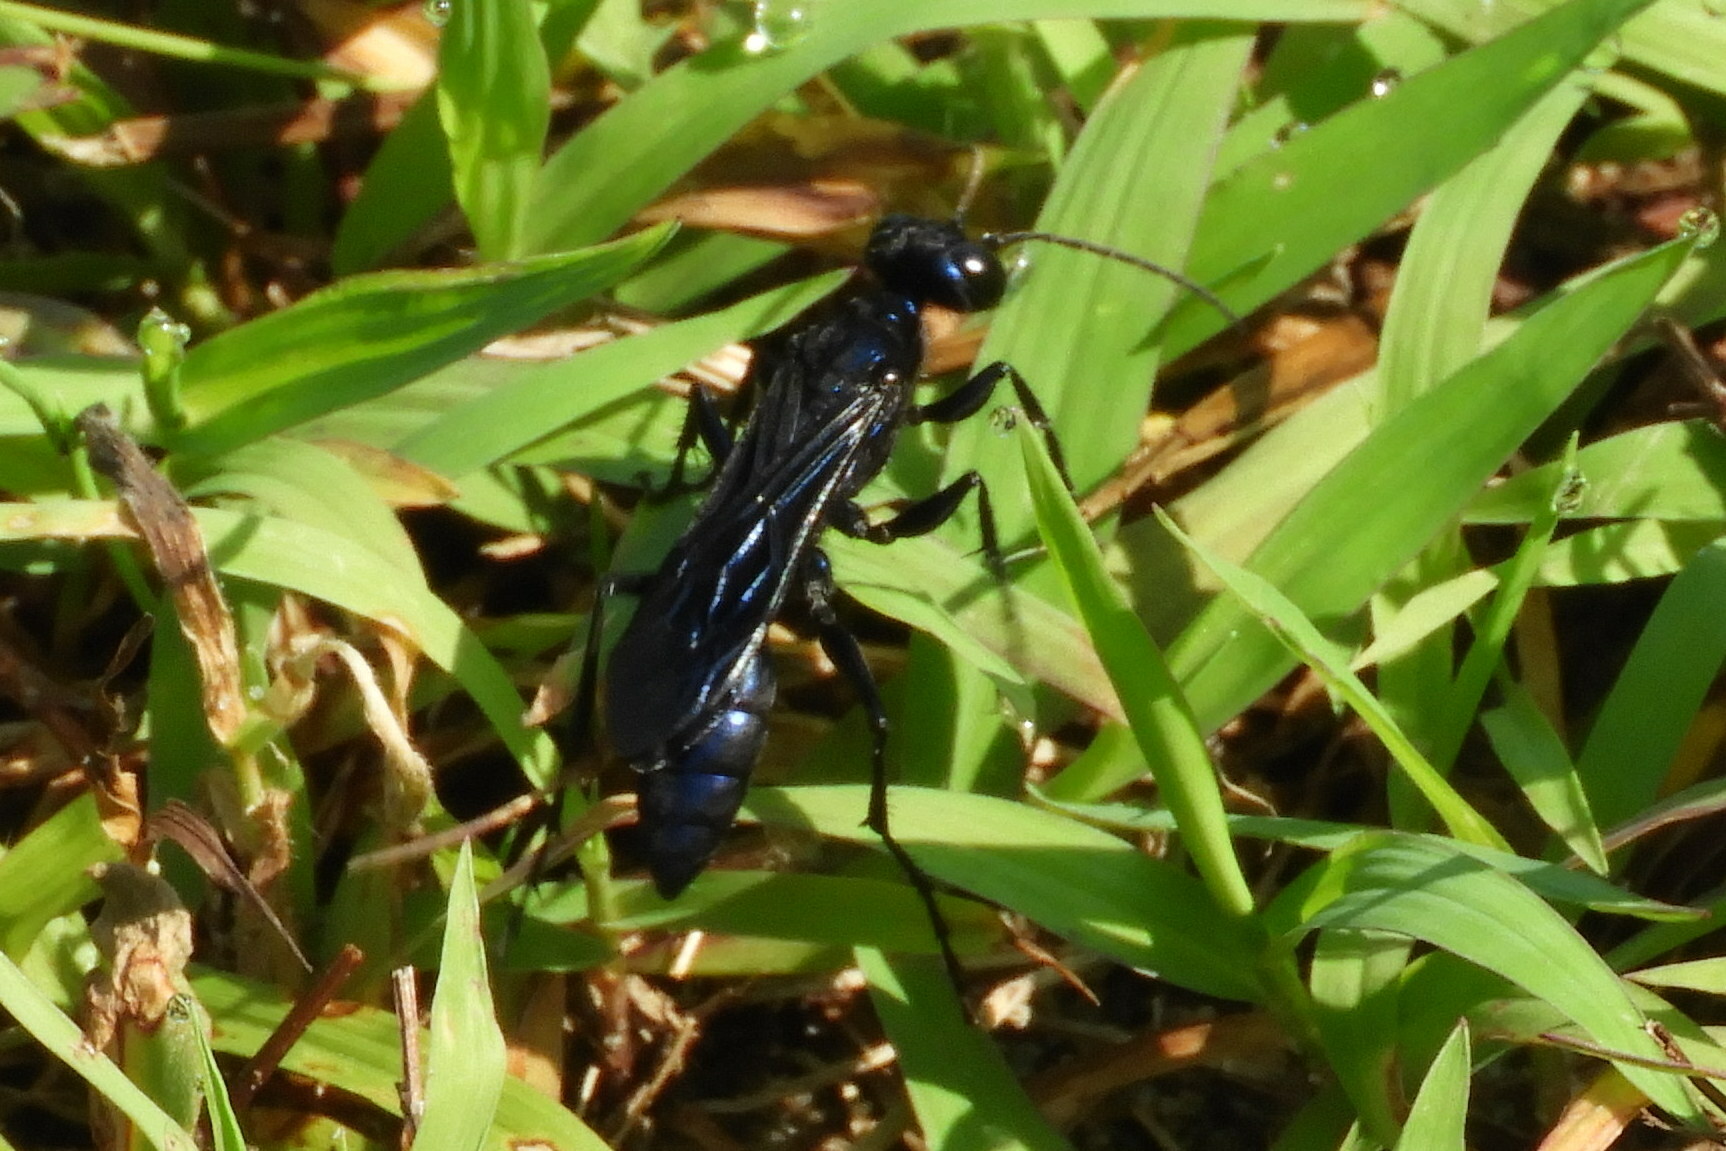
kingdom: Animalia
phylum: Arthropoda
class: Insecta
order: Hymenoptera
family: Sphecidae
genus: Chlorion
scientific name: Chlorion aerarium
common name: Steel-blue cricket hunter
